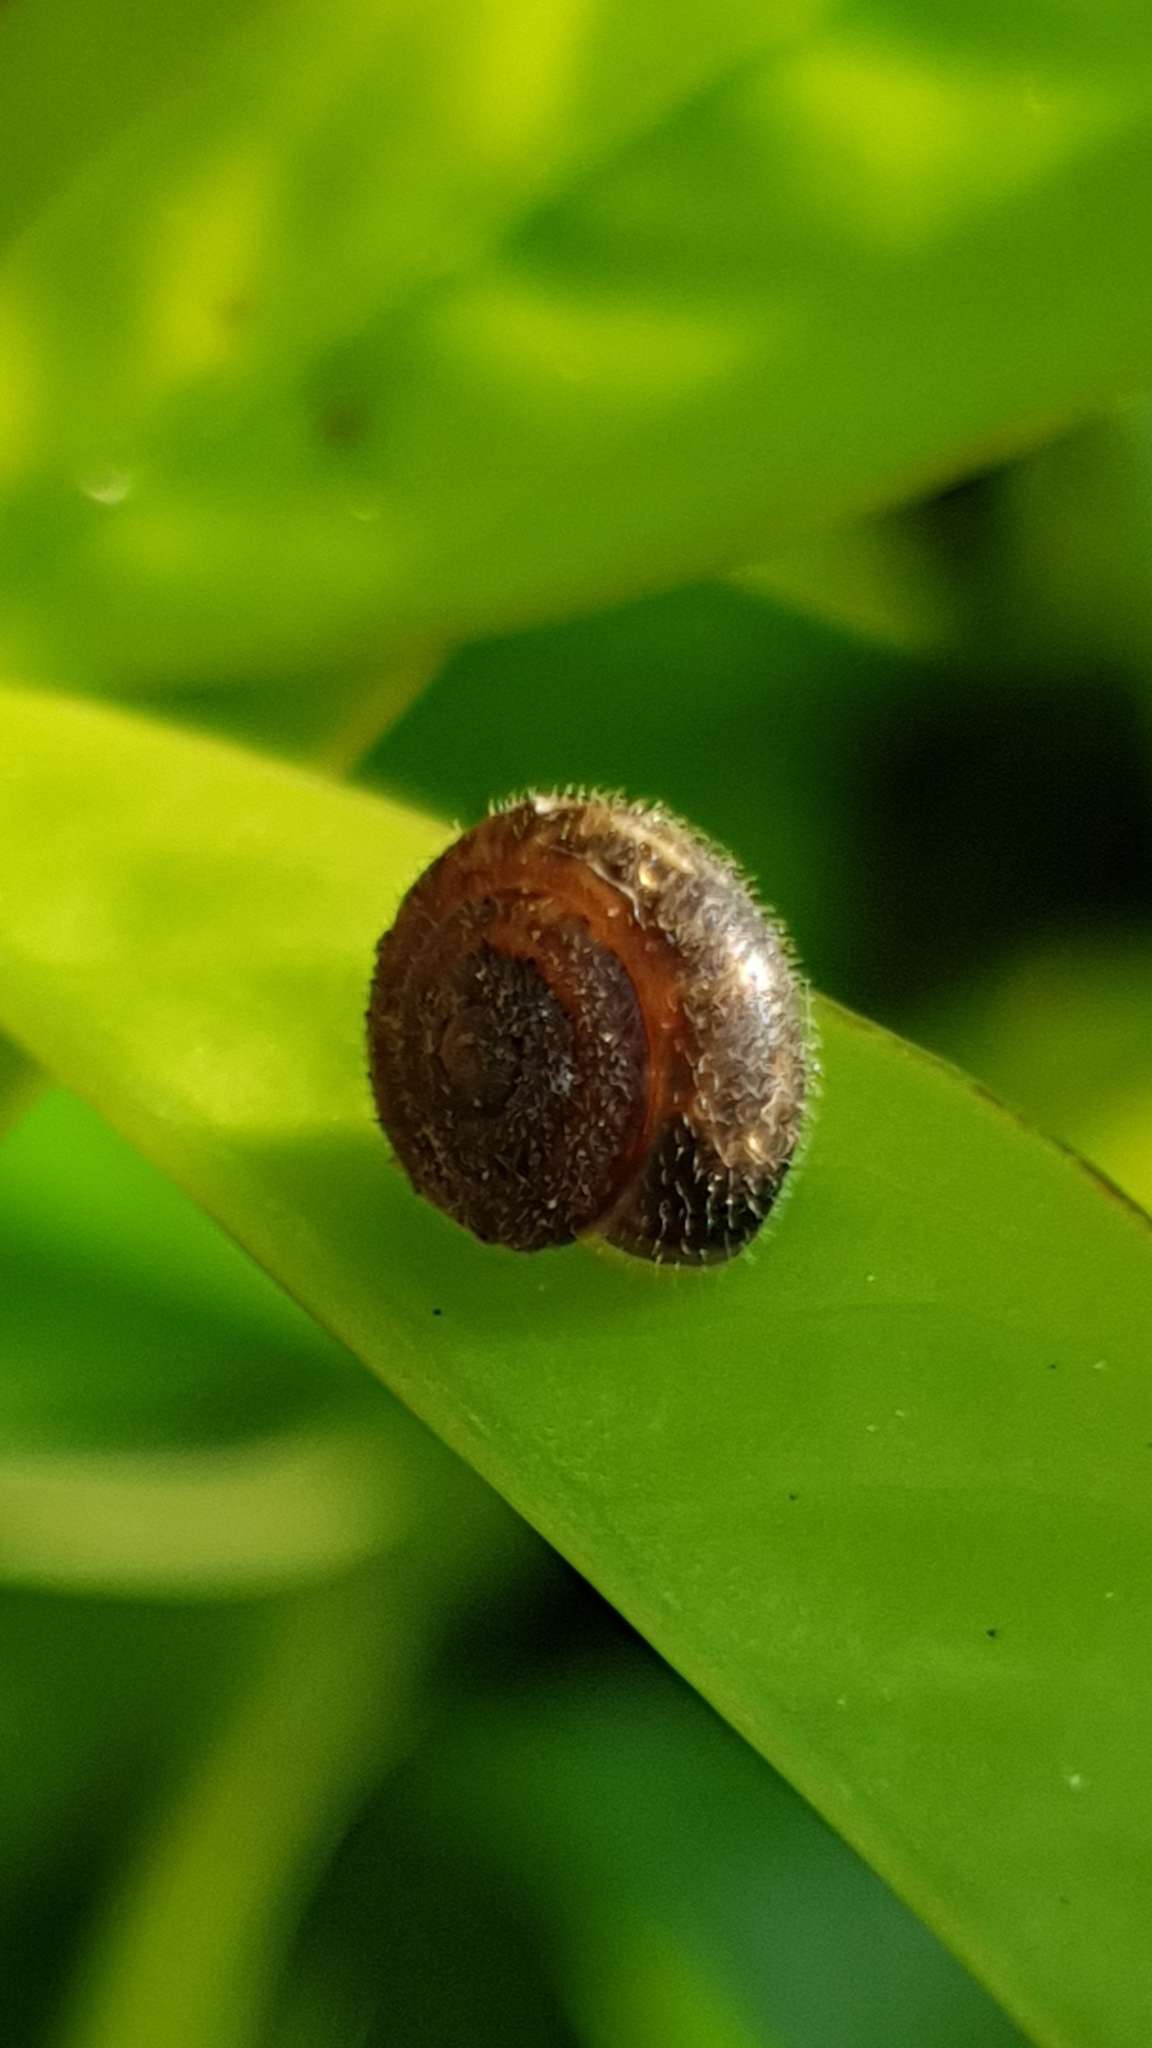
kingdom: Animalia
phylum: Mollusca
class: Gastropoda
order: Stylommatophora
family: Hygromiidae
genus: Trochulus
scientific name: Trochulus hispidus
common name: Hairy snail
